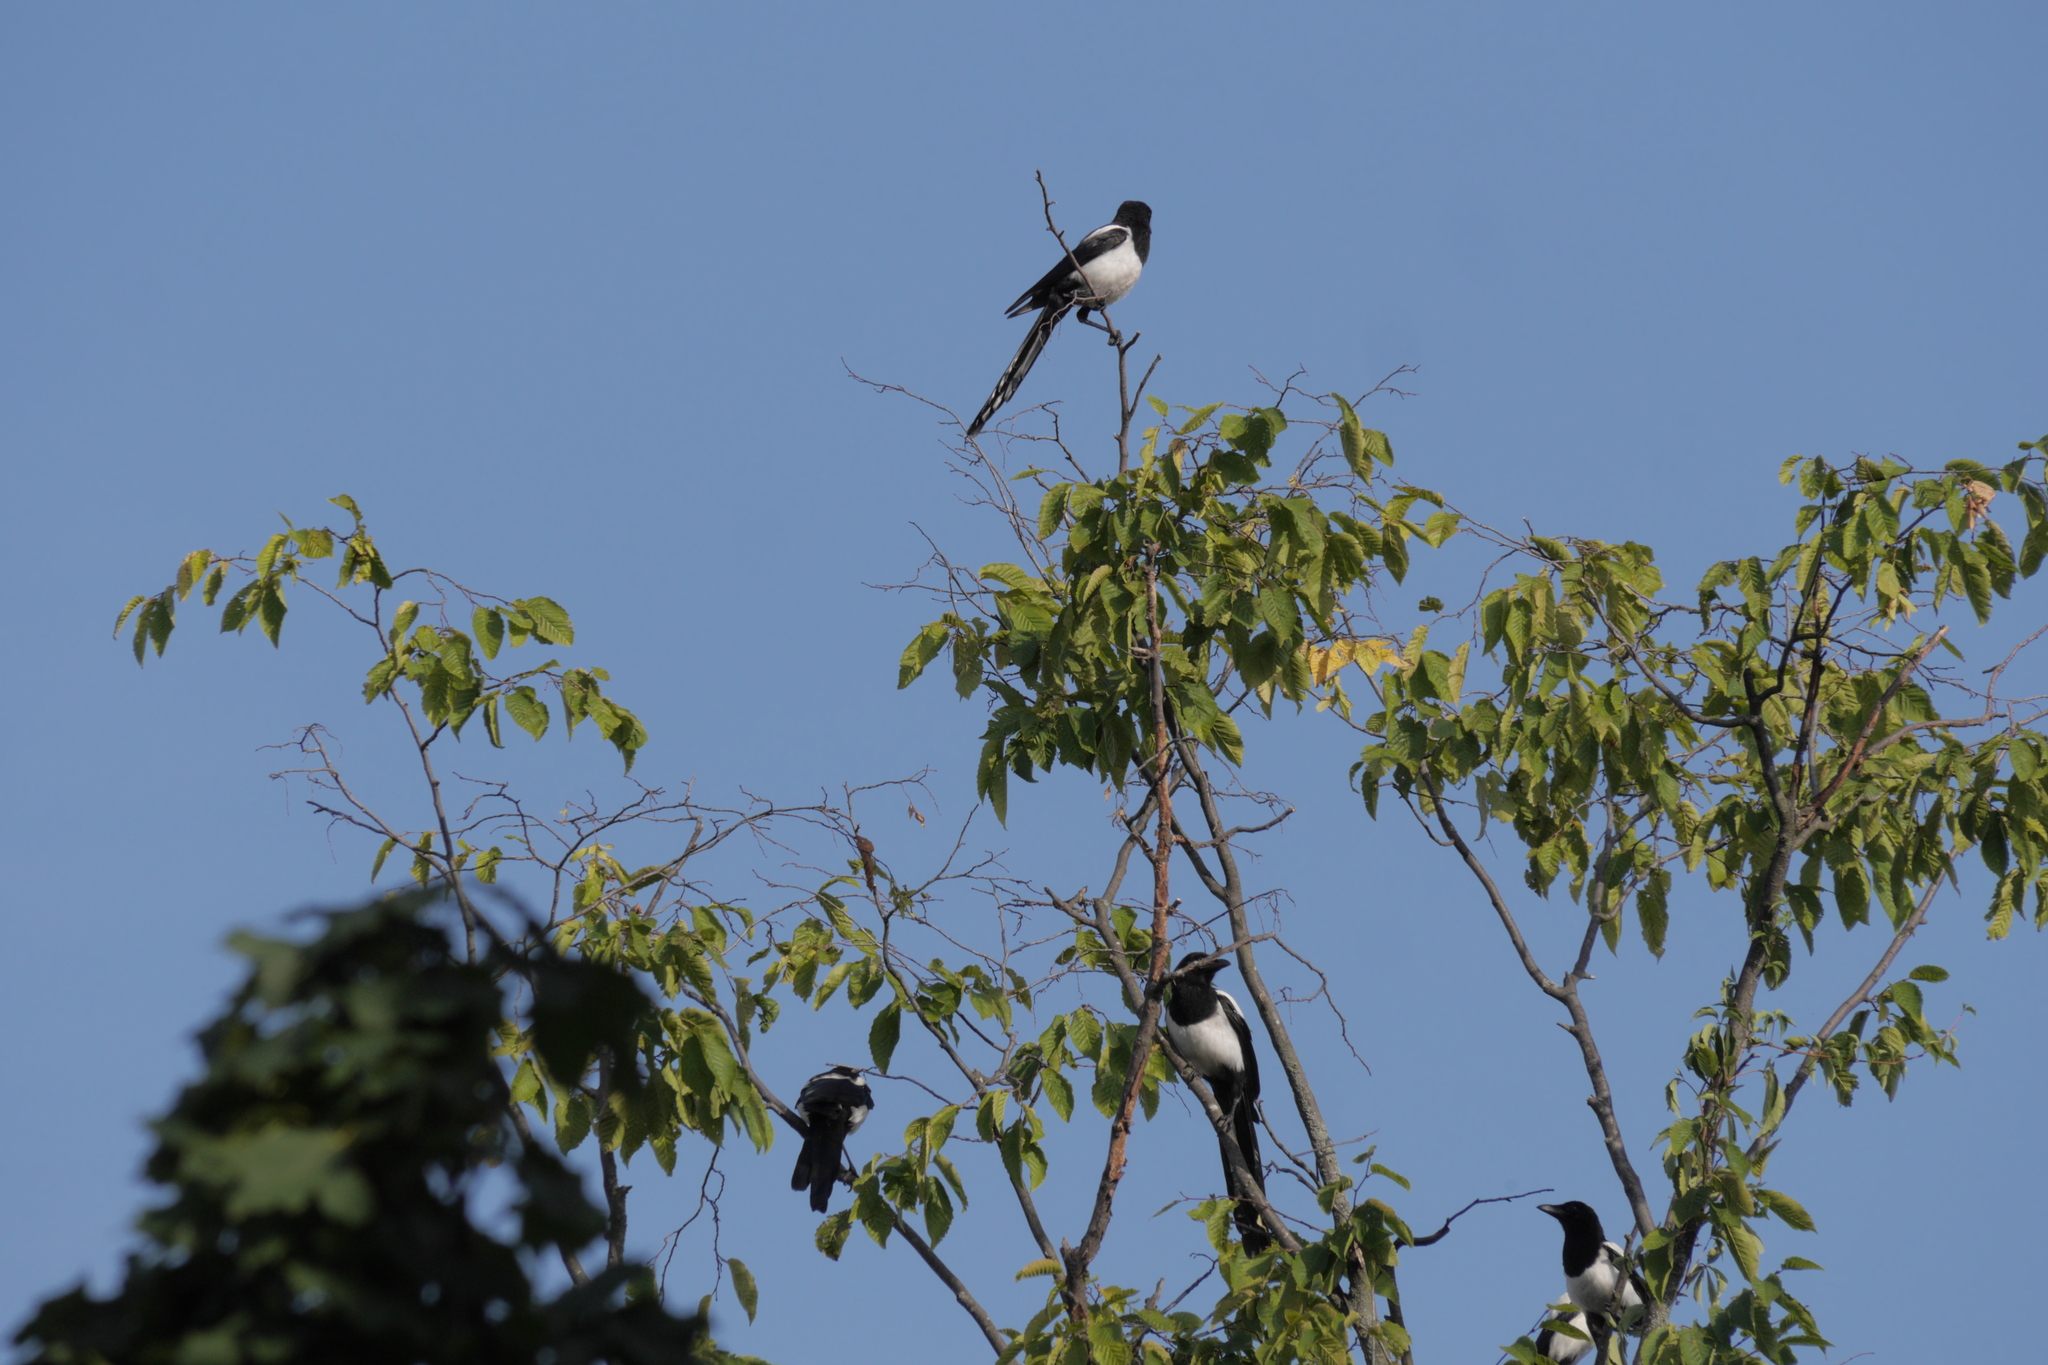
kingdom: Animalia
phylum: Chordata
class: Aves
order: Passeriformes
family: Corvidae
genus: Pica
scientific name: Pica pica
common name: Eurasian magpie
